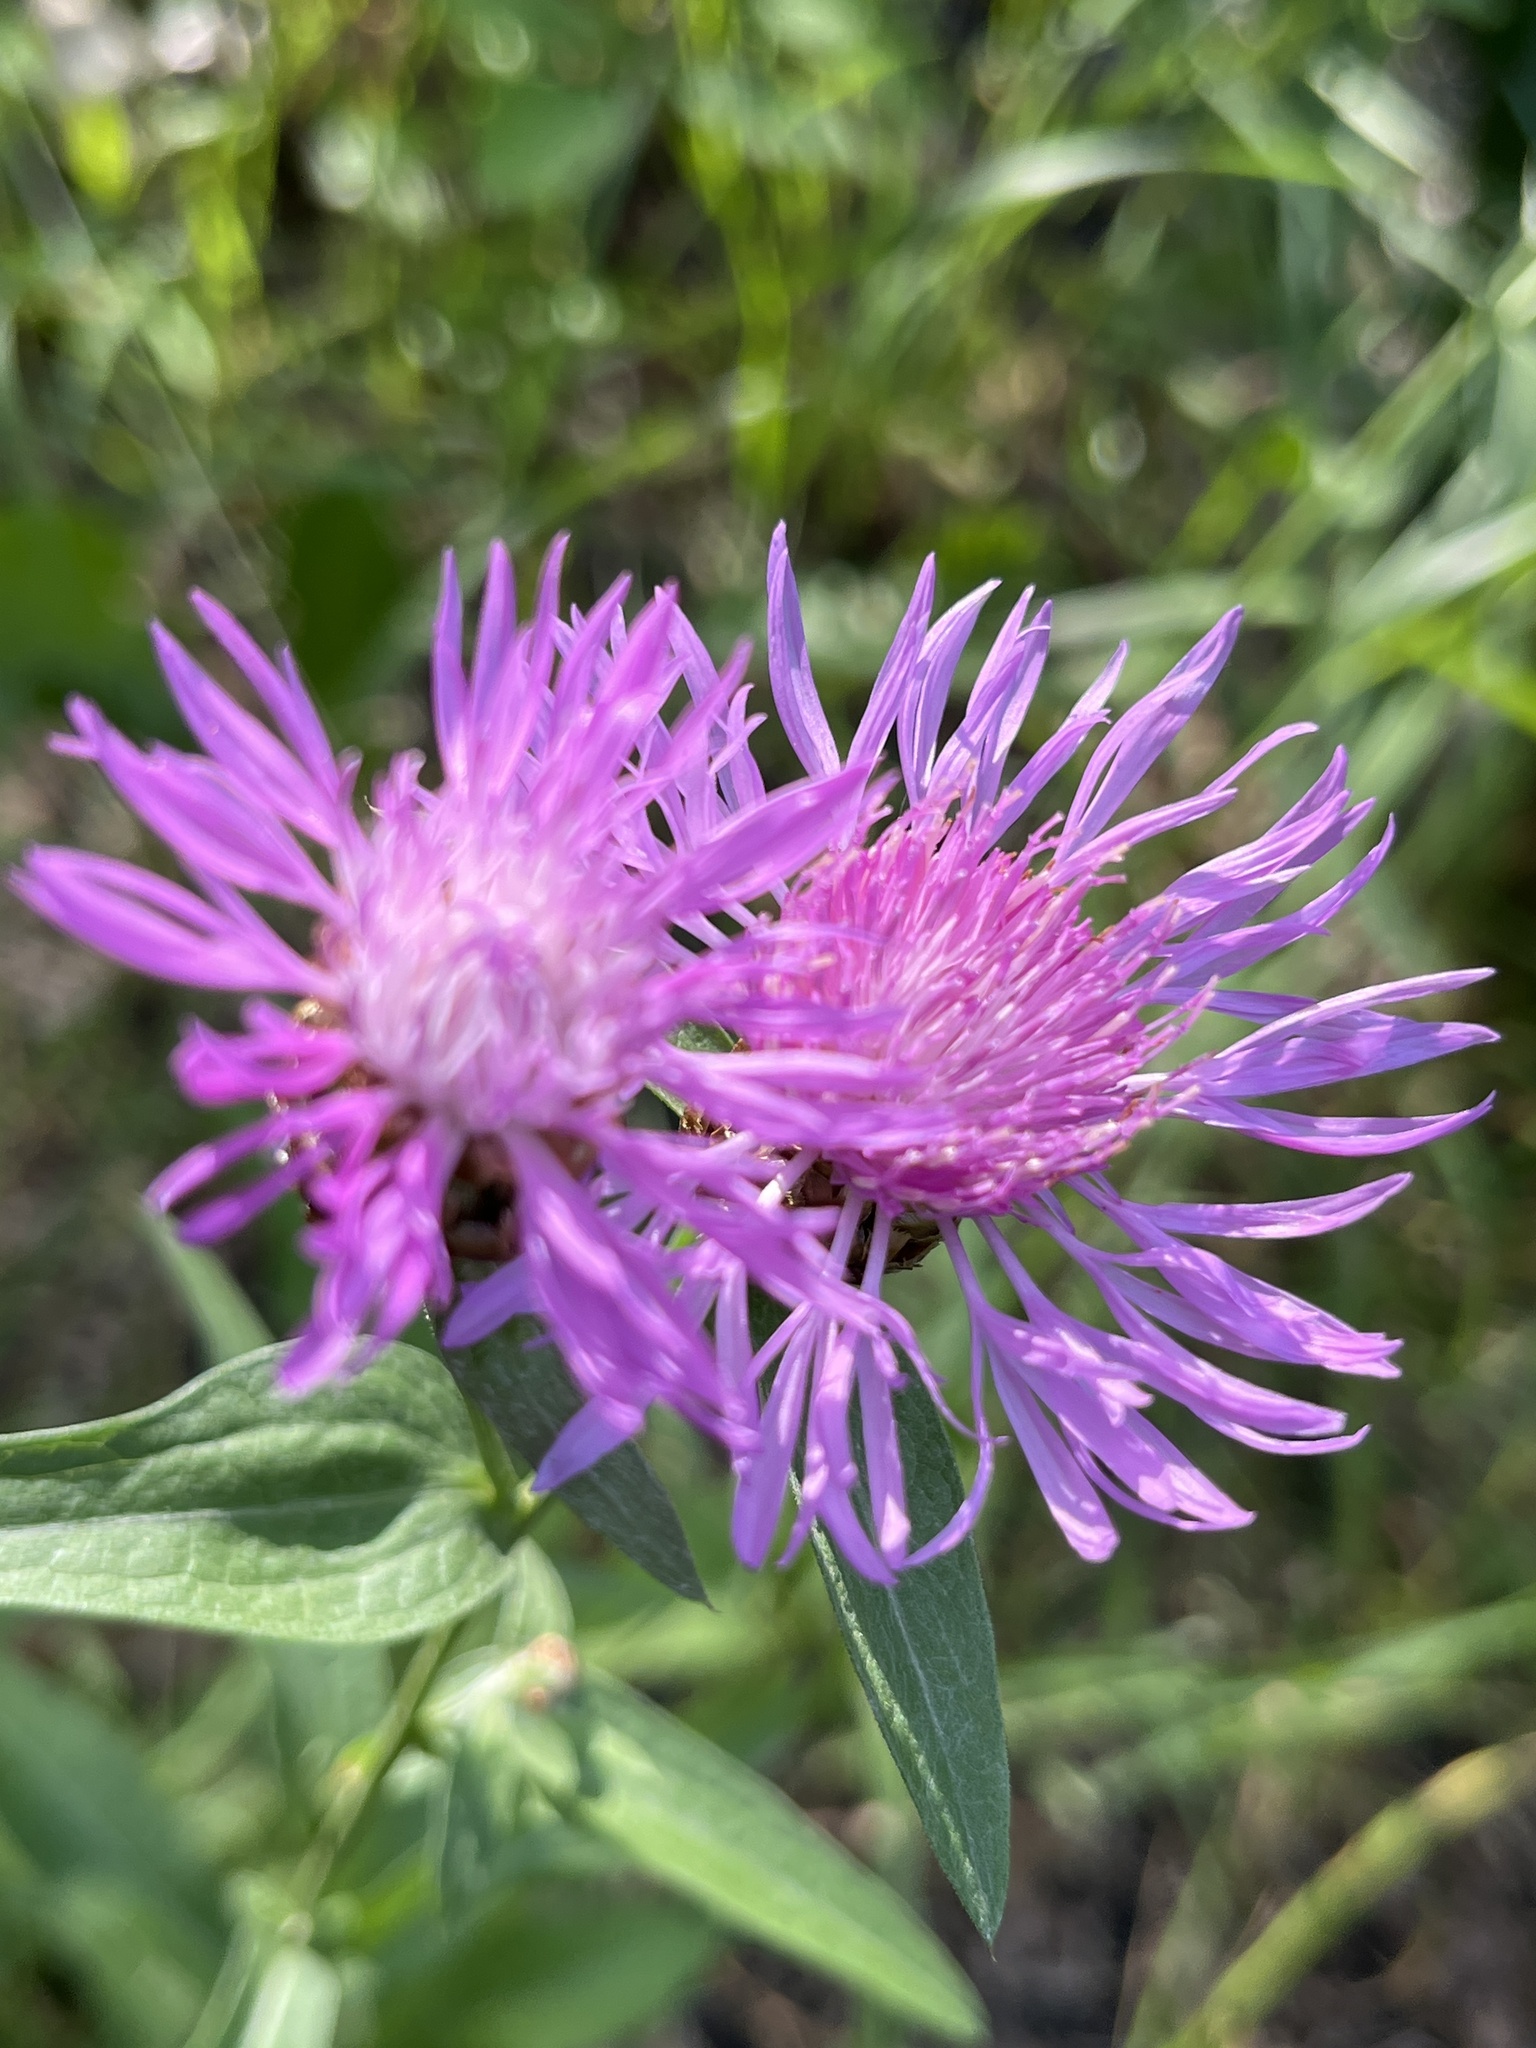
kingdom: Plantae
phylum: Tracheophyta
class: Magnoliopsida
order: Asterales
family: Asteraceae
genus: Centaurea
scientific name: Centaurea jacea
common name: Brown knapweed
